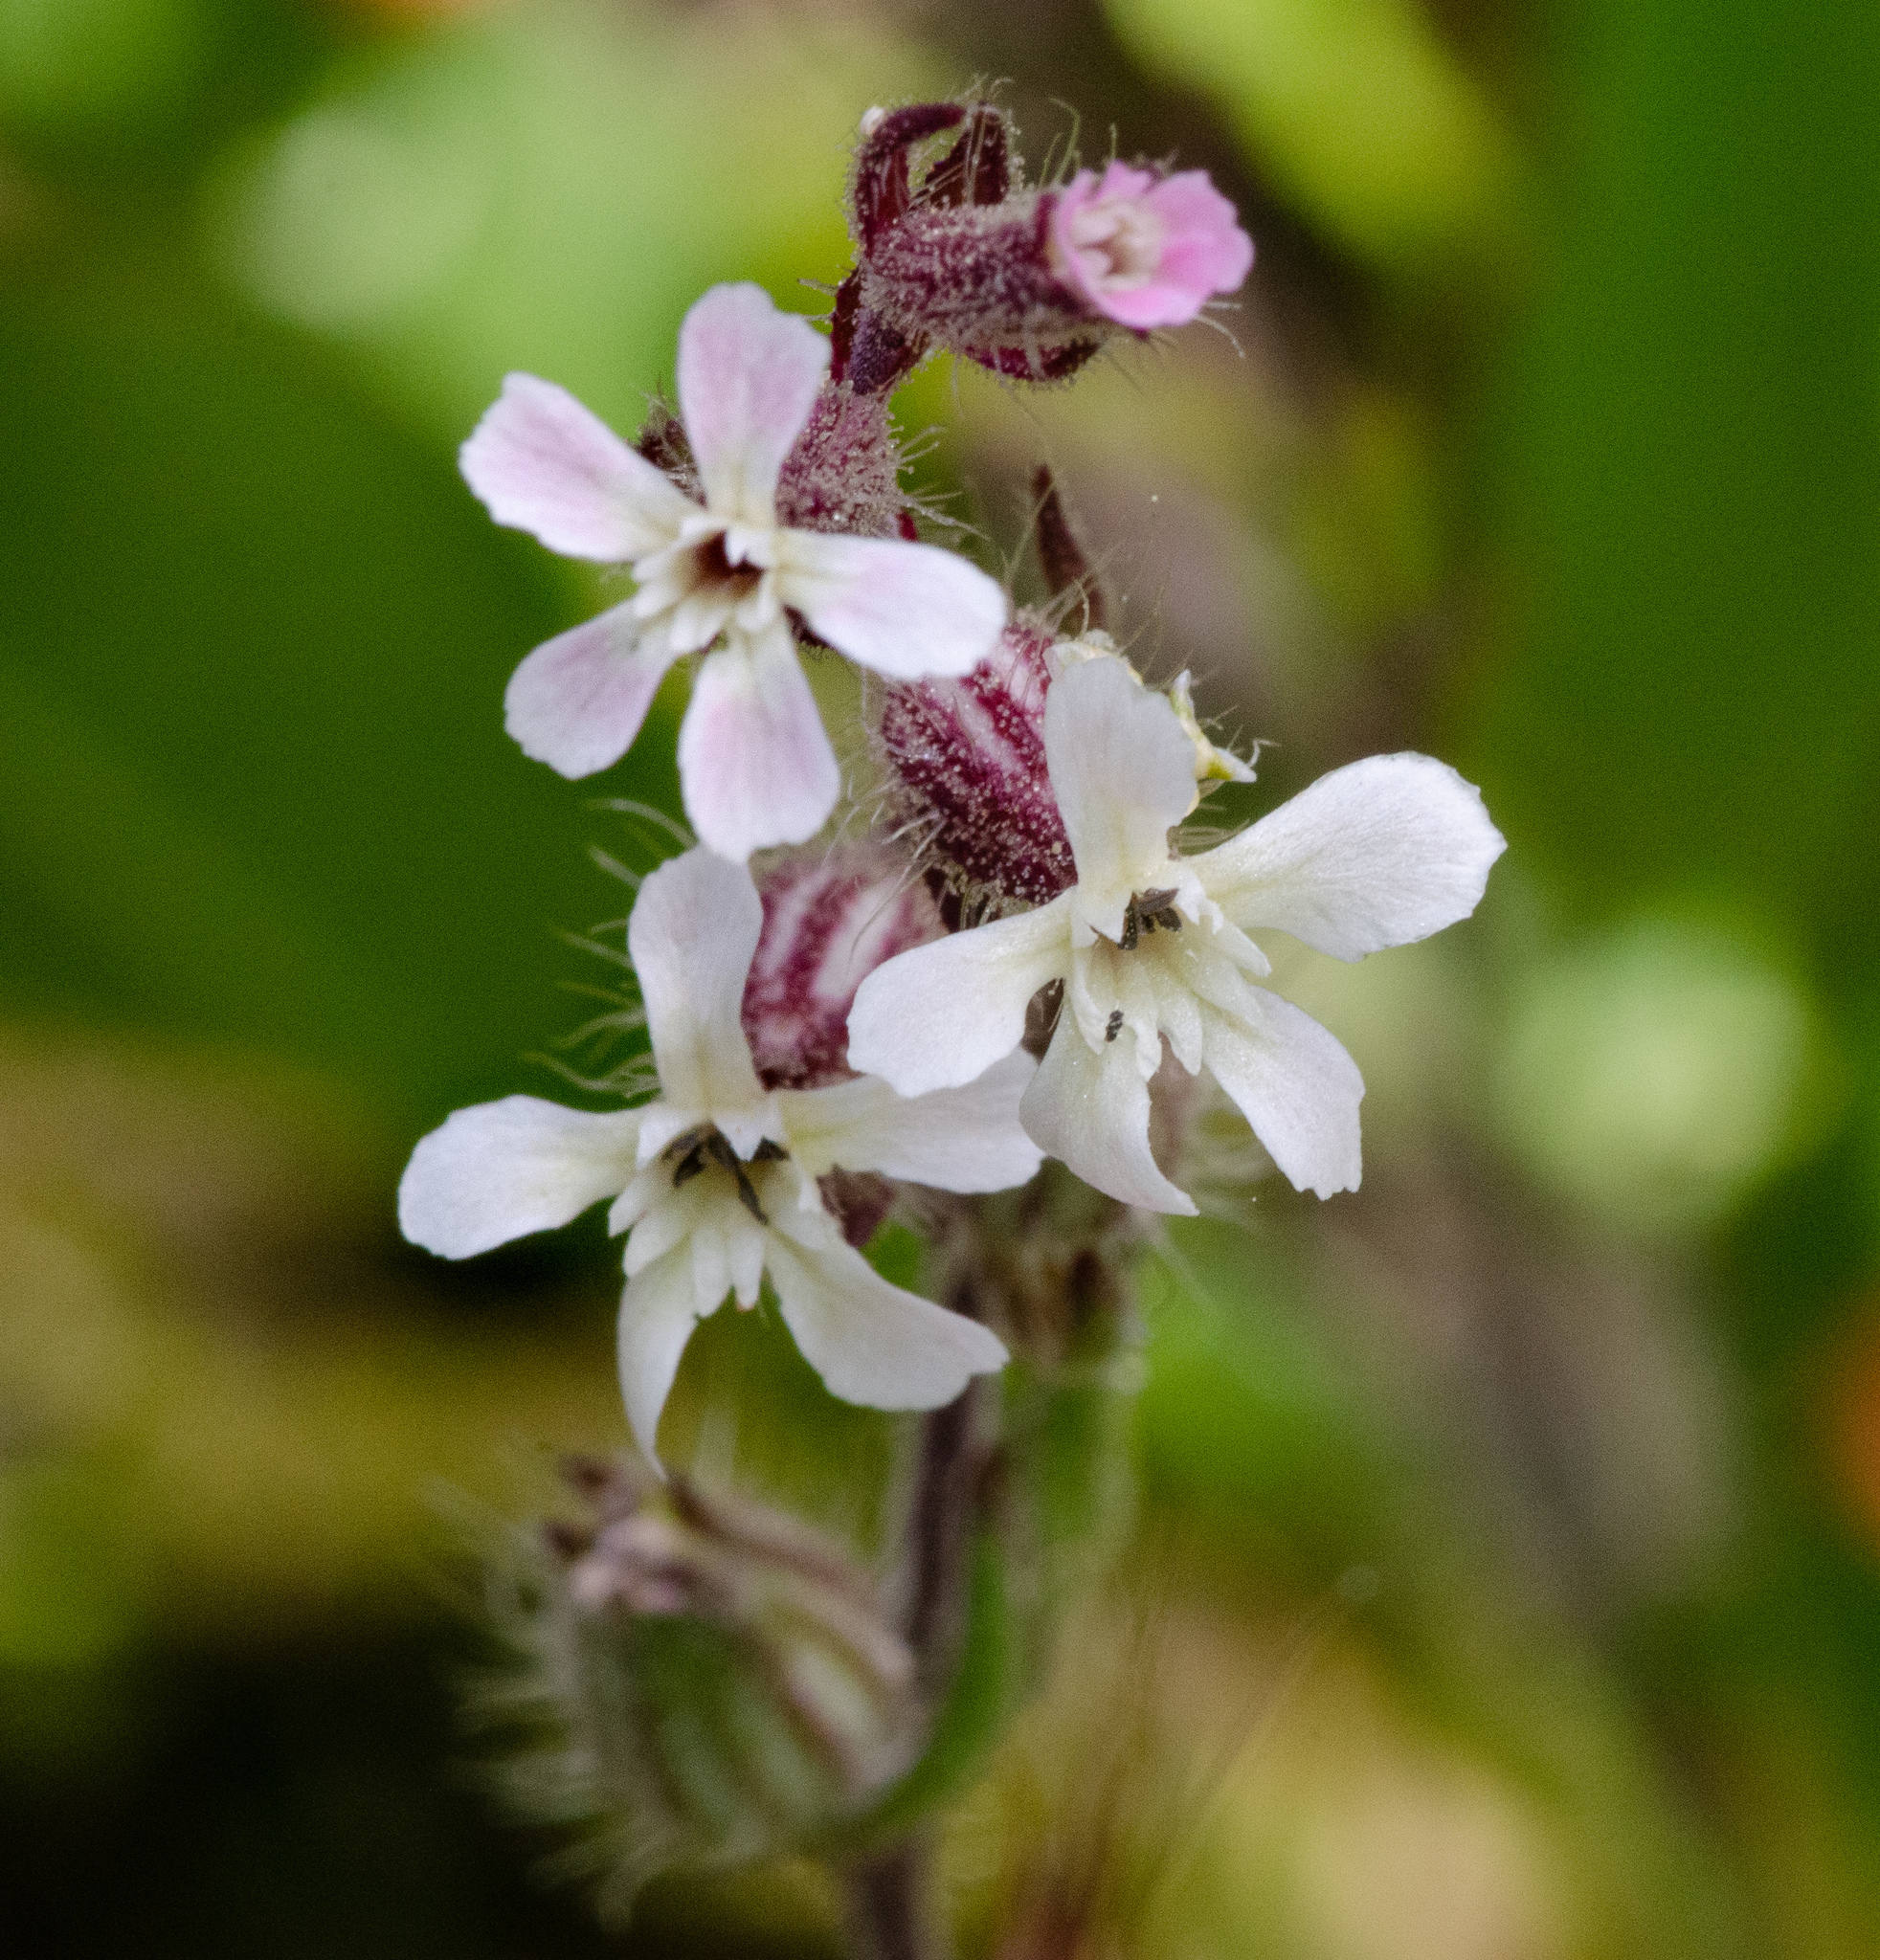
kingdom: Plantae
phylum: Tracheophyta
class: Magnoliopsida
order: Caryophyllales
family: Caryophyllaceae
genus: Silene
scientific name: Silene gallica
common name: Small-flowered catchfly
